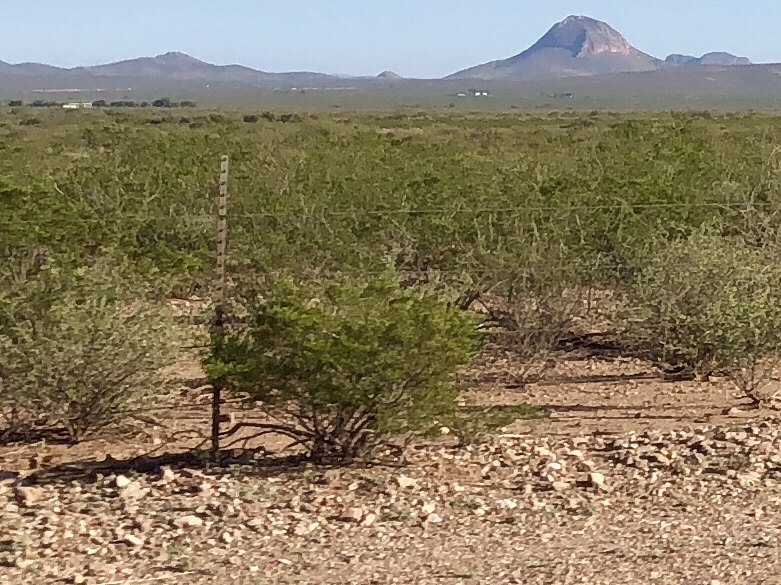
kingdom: Plantae
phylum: Tracheophyta
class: Magnoliopsida
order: Zygophyllales
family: Zygophyllaceae
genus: Larrea
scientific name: Larrea tridentata
